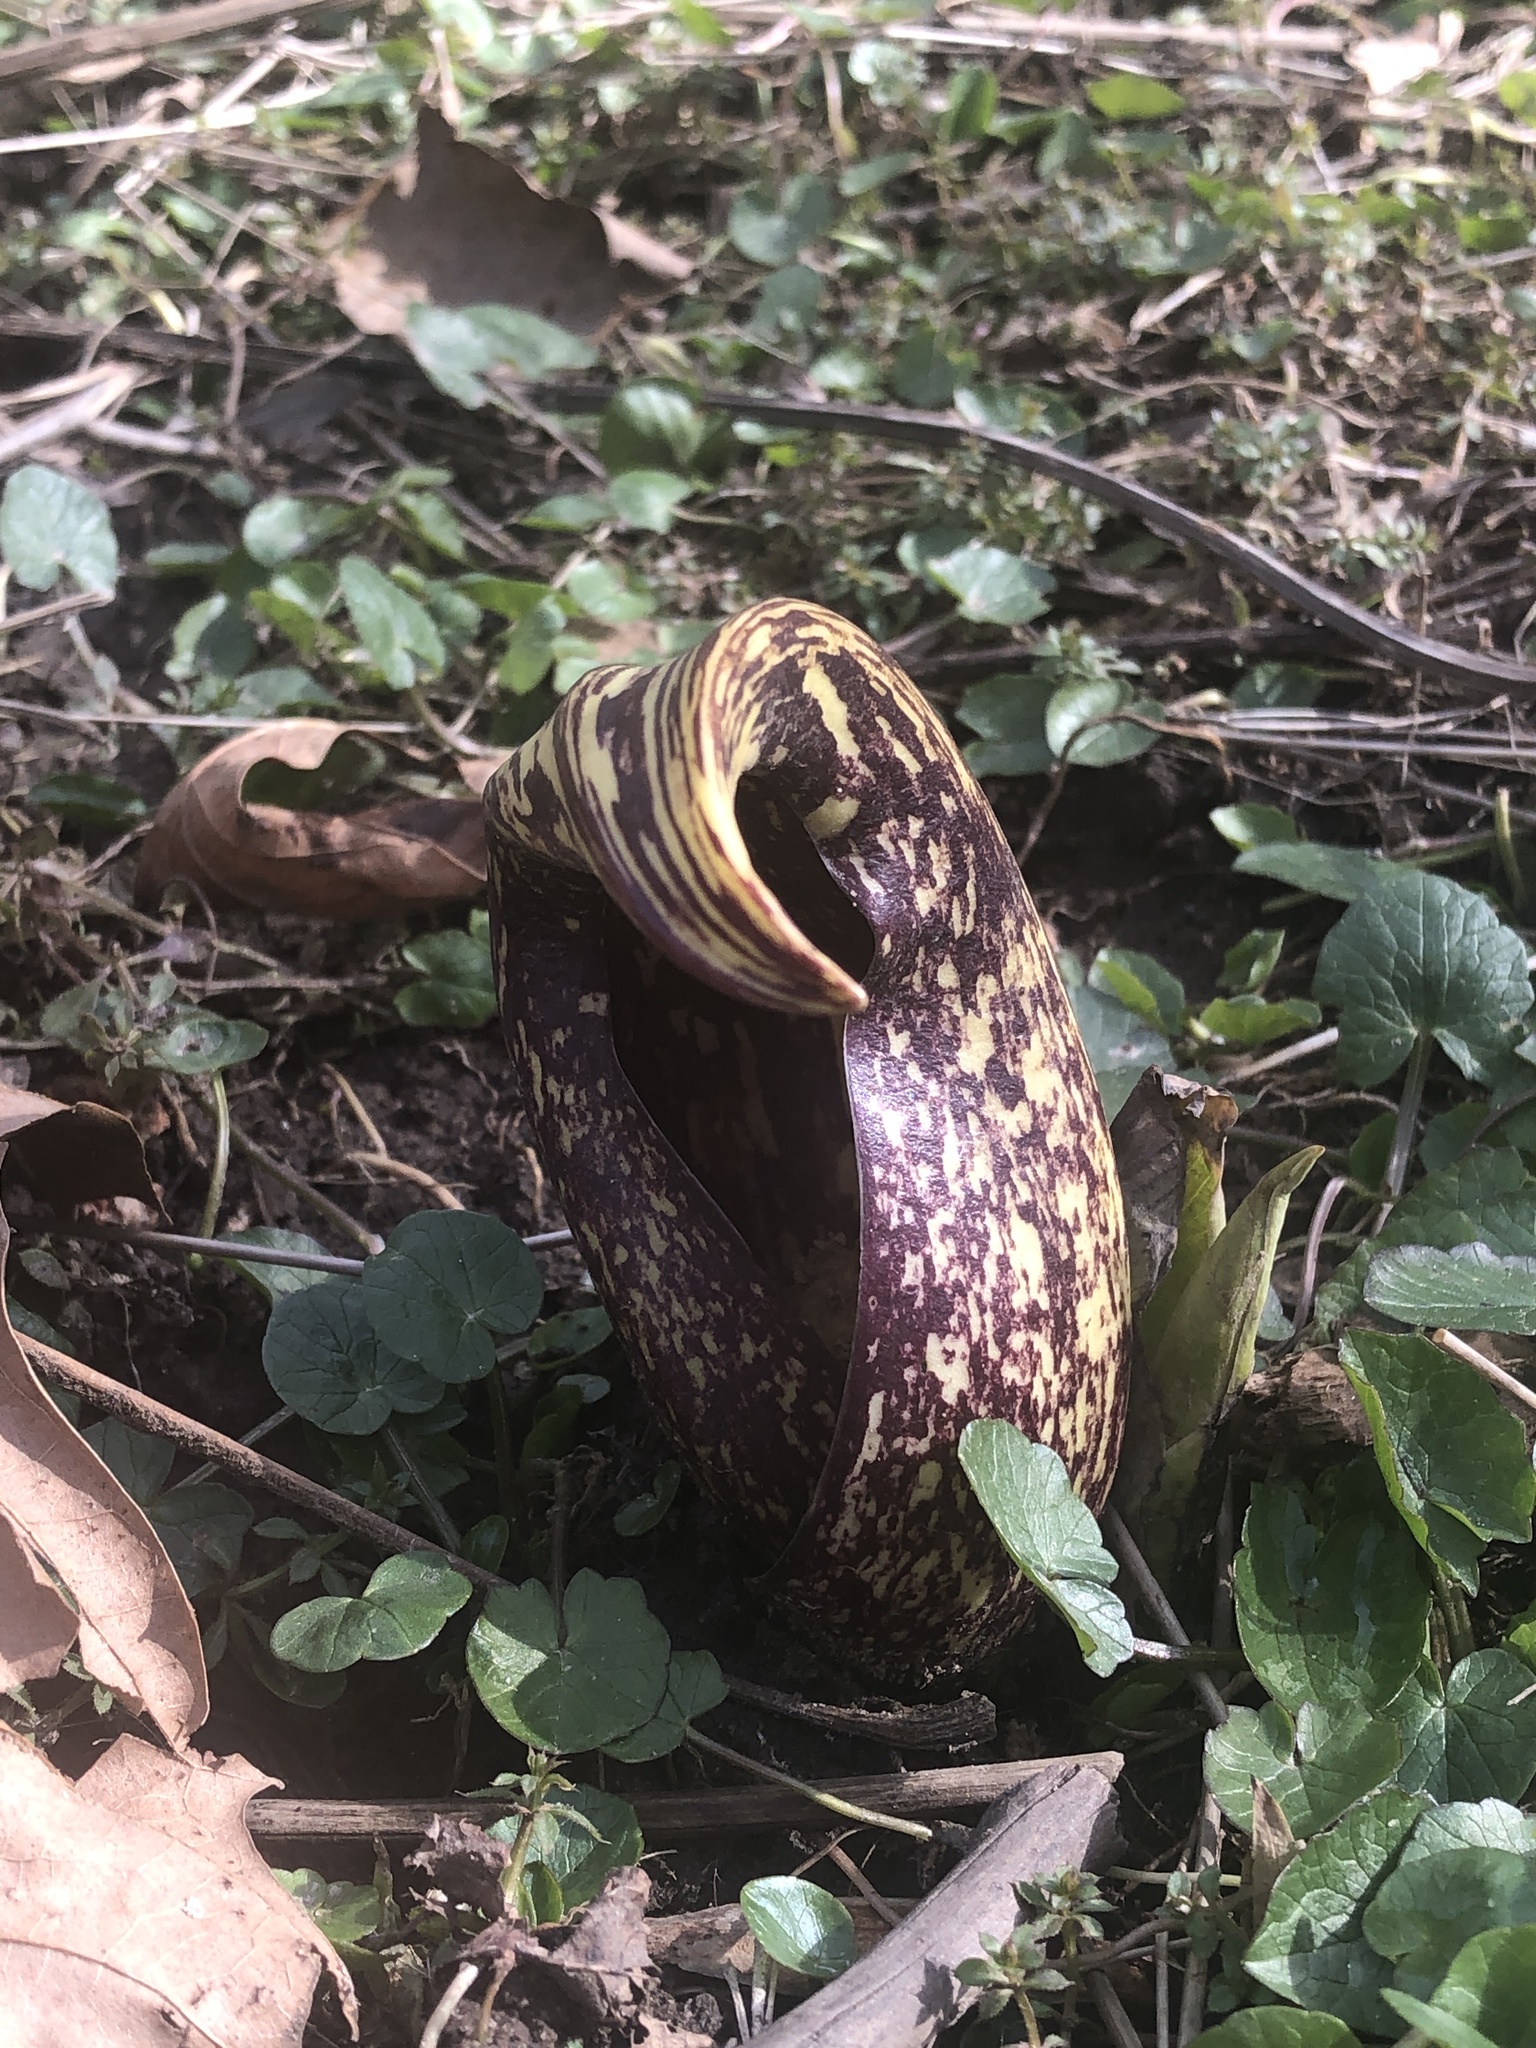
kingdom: Plantae
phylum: Tracheophyta
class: Liliopsida
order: Alismatales
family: Araceae
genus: Symplocarpus
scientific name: Symplocarpus foetidus
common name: Eastern skunk cabbage
